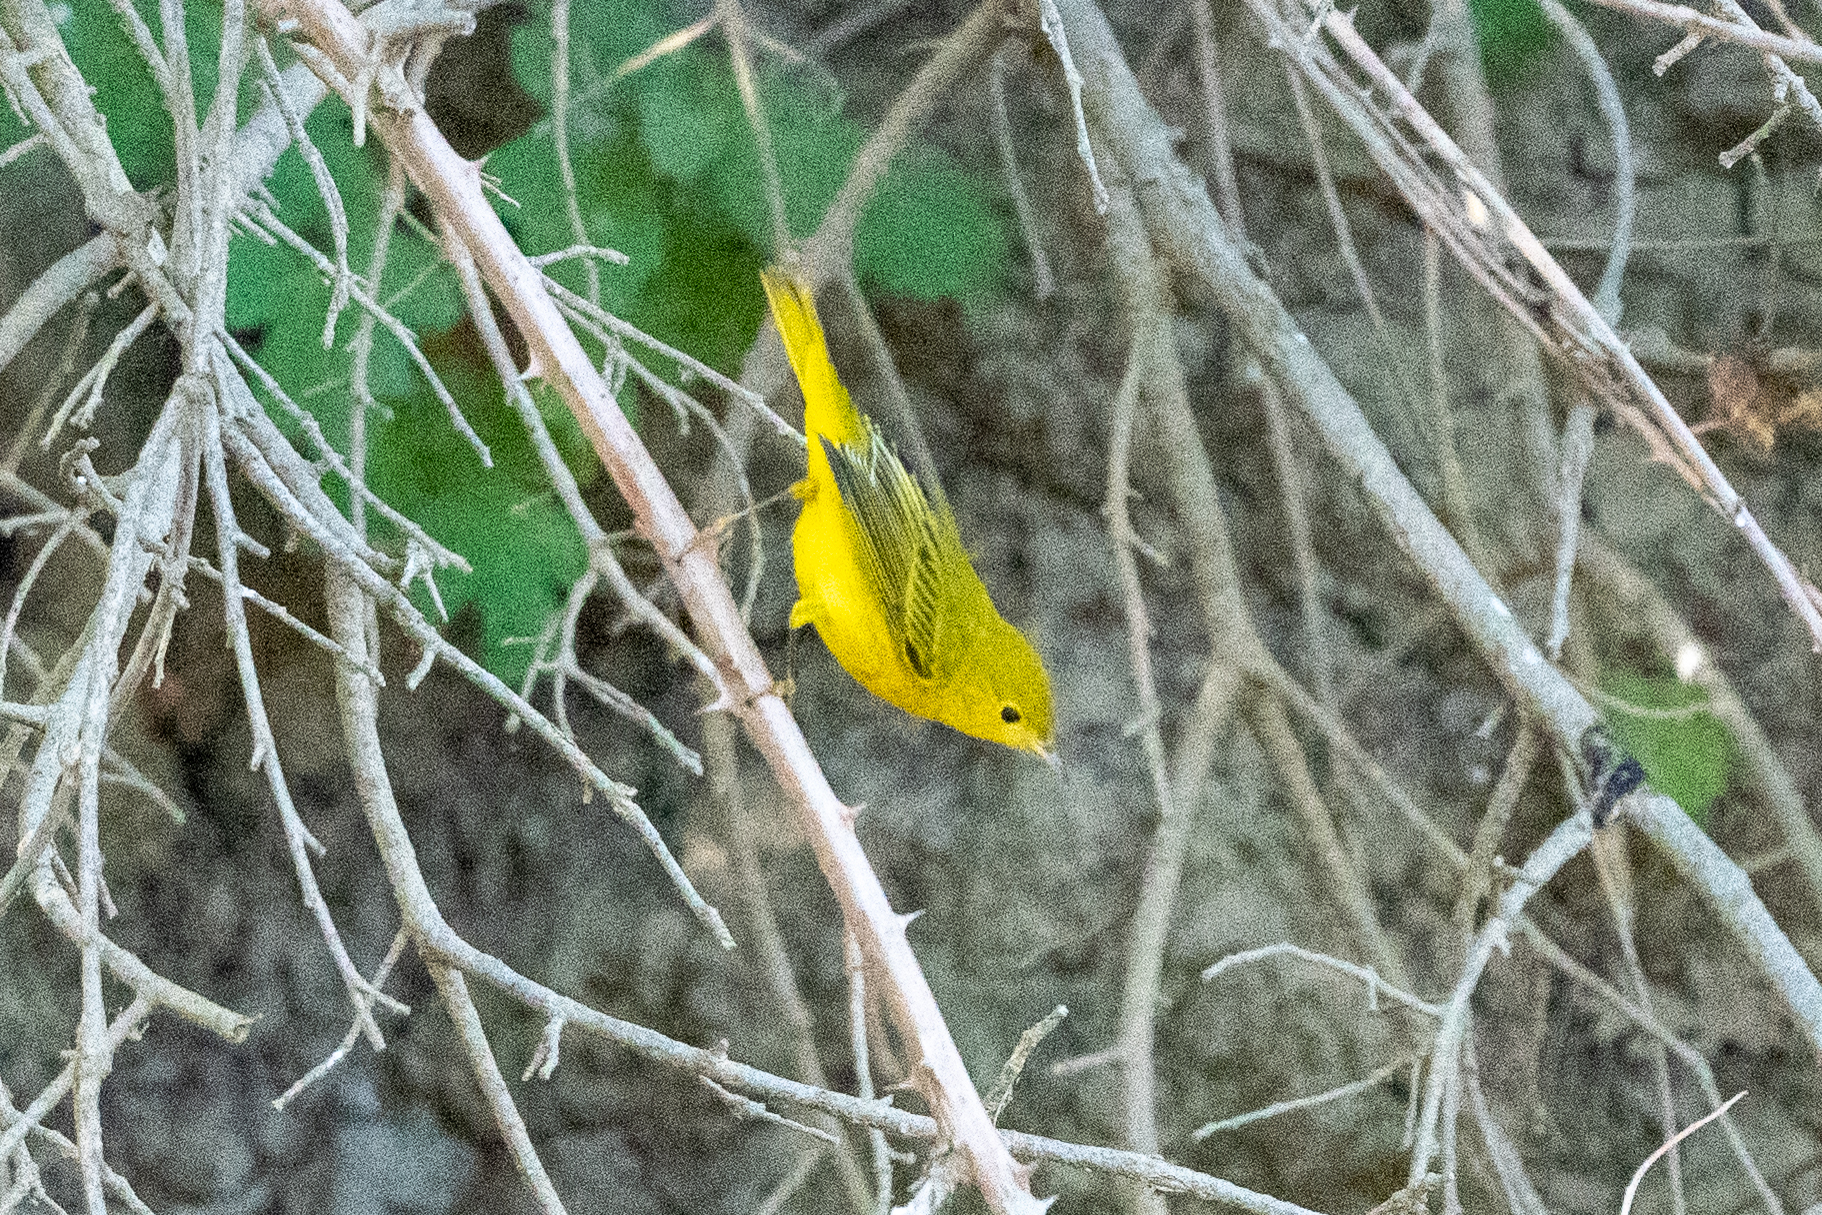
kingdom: Animalia
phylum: Chordata
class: Aves
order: Passeriformes
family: Parulidae
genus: Setophaga
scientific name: Setophaga petechia
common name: Yellow warbler
